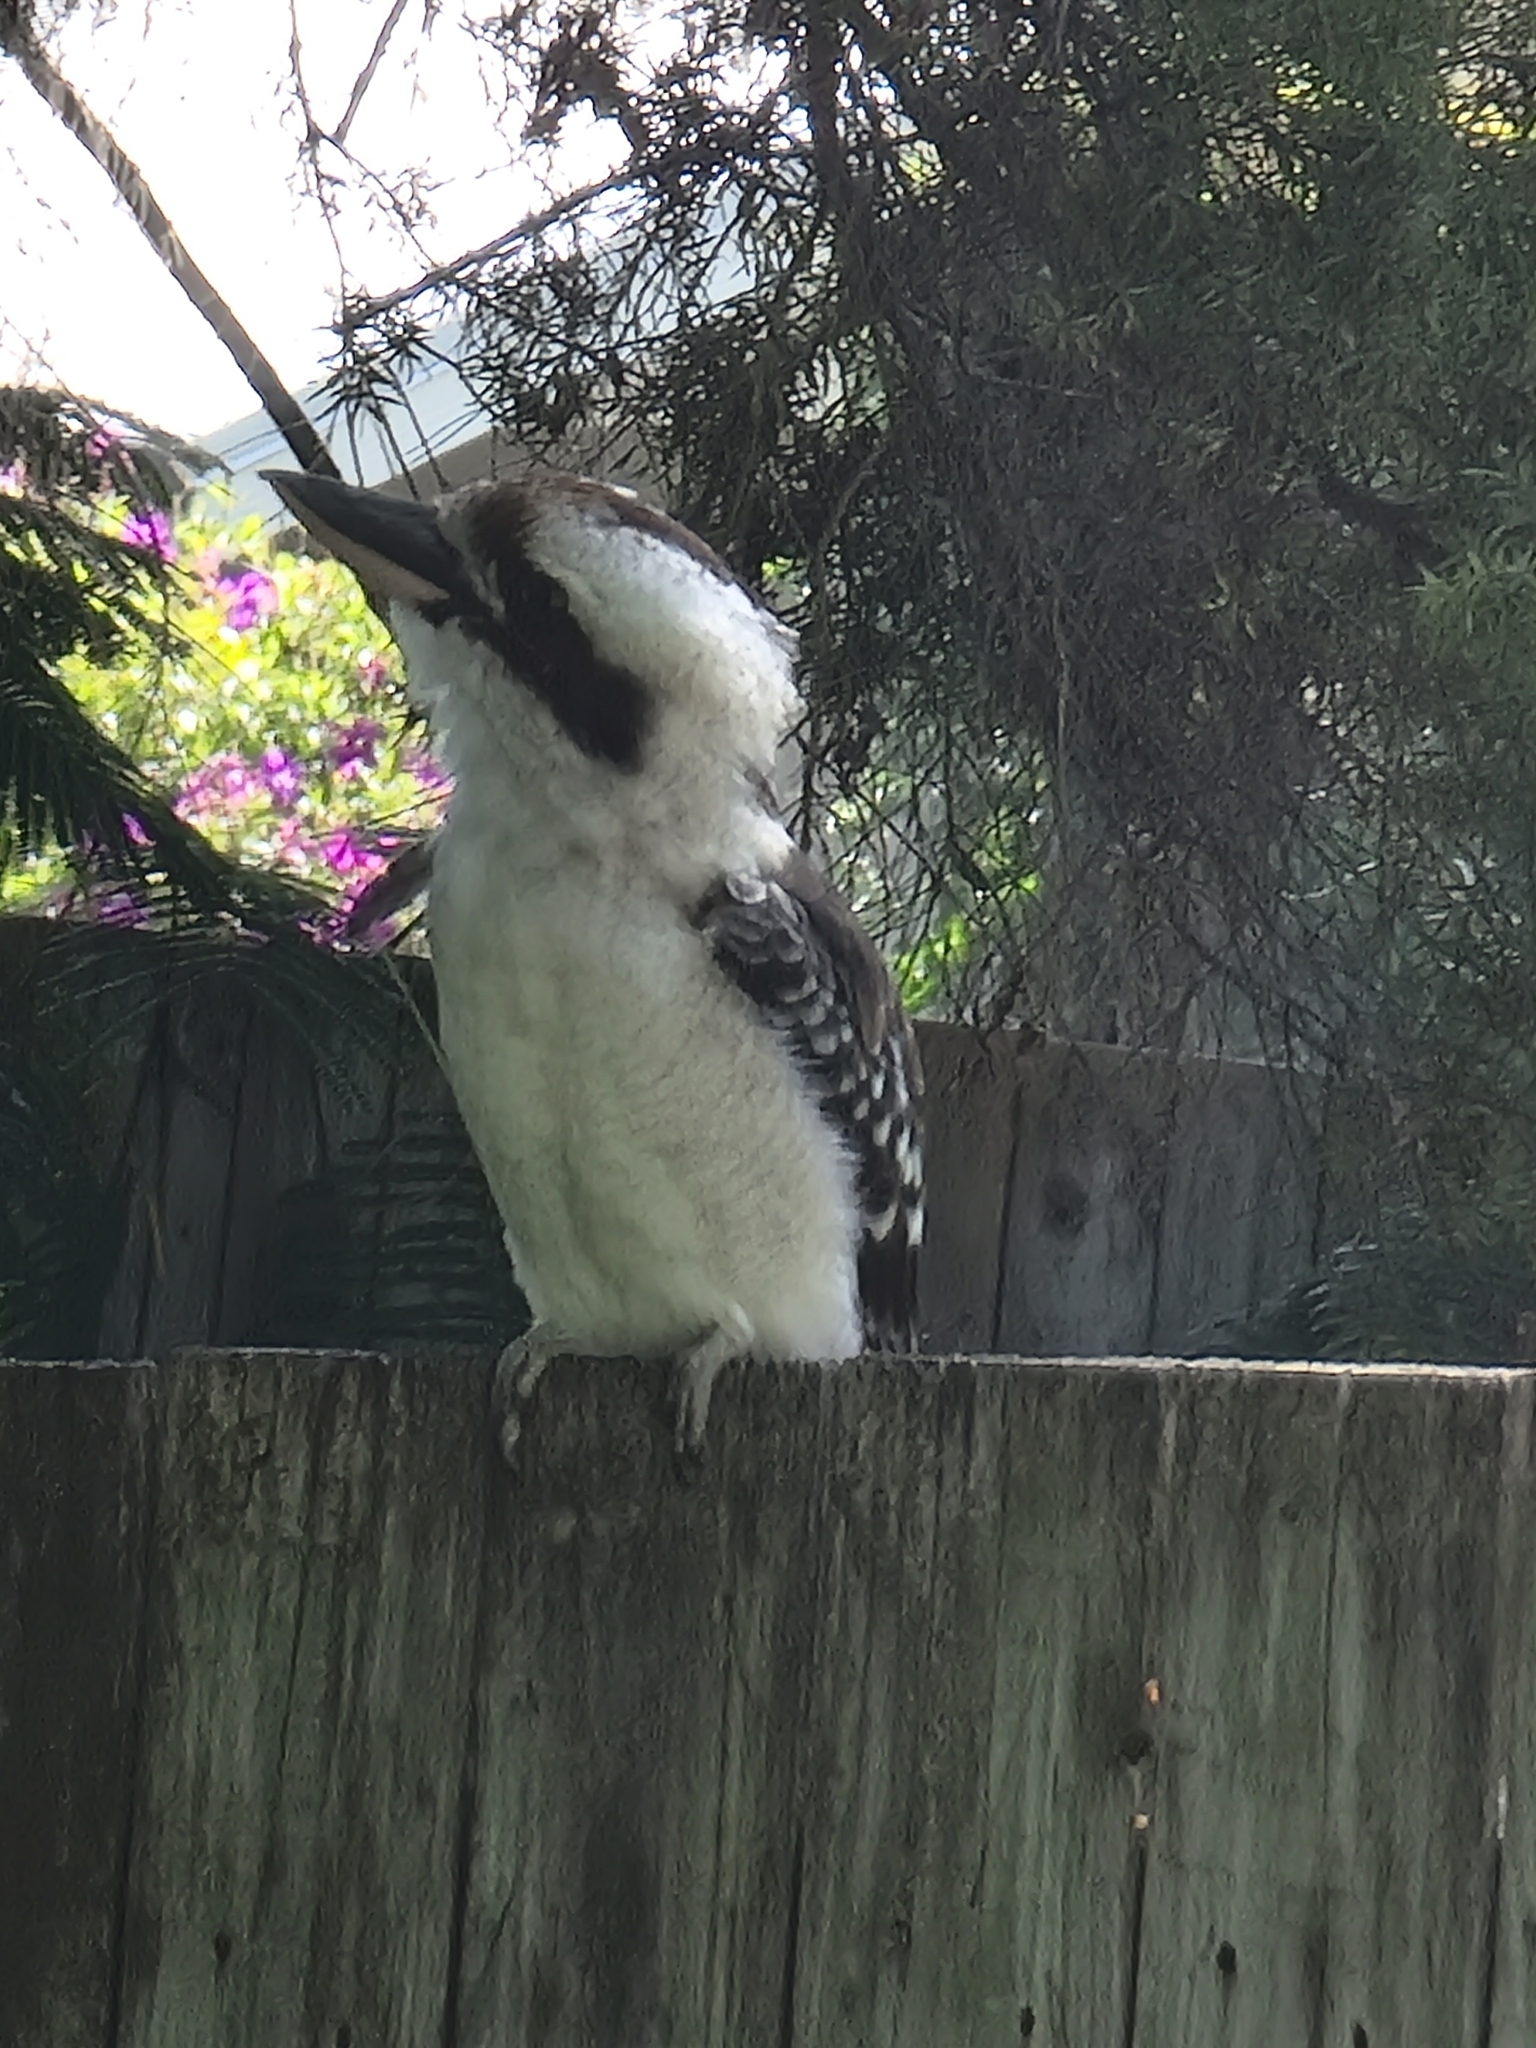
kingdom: Animalia
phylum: Chordata
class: Aves
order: Coraciiformes
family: Alcedinidae
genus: Dacelo
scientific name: Dacelo novaeguineae
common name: Laughing kookaburra
